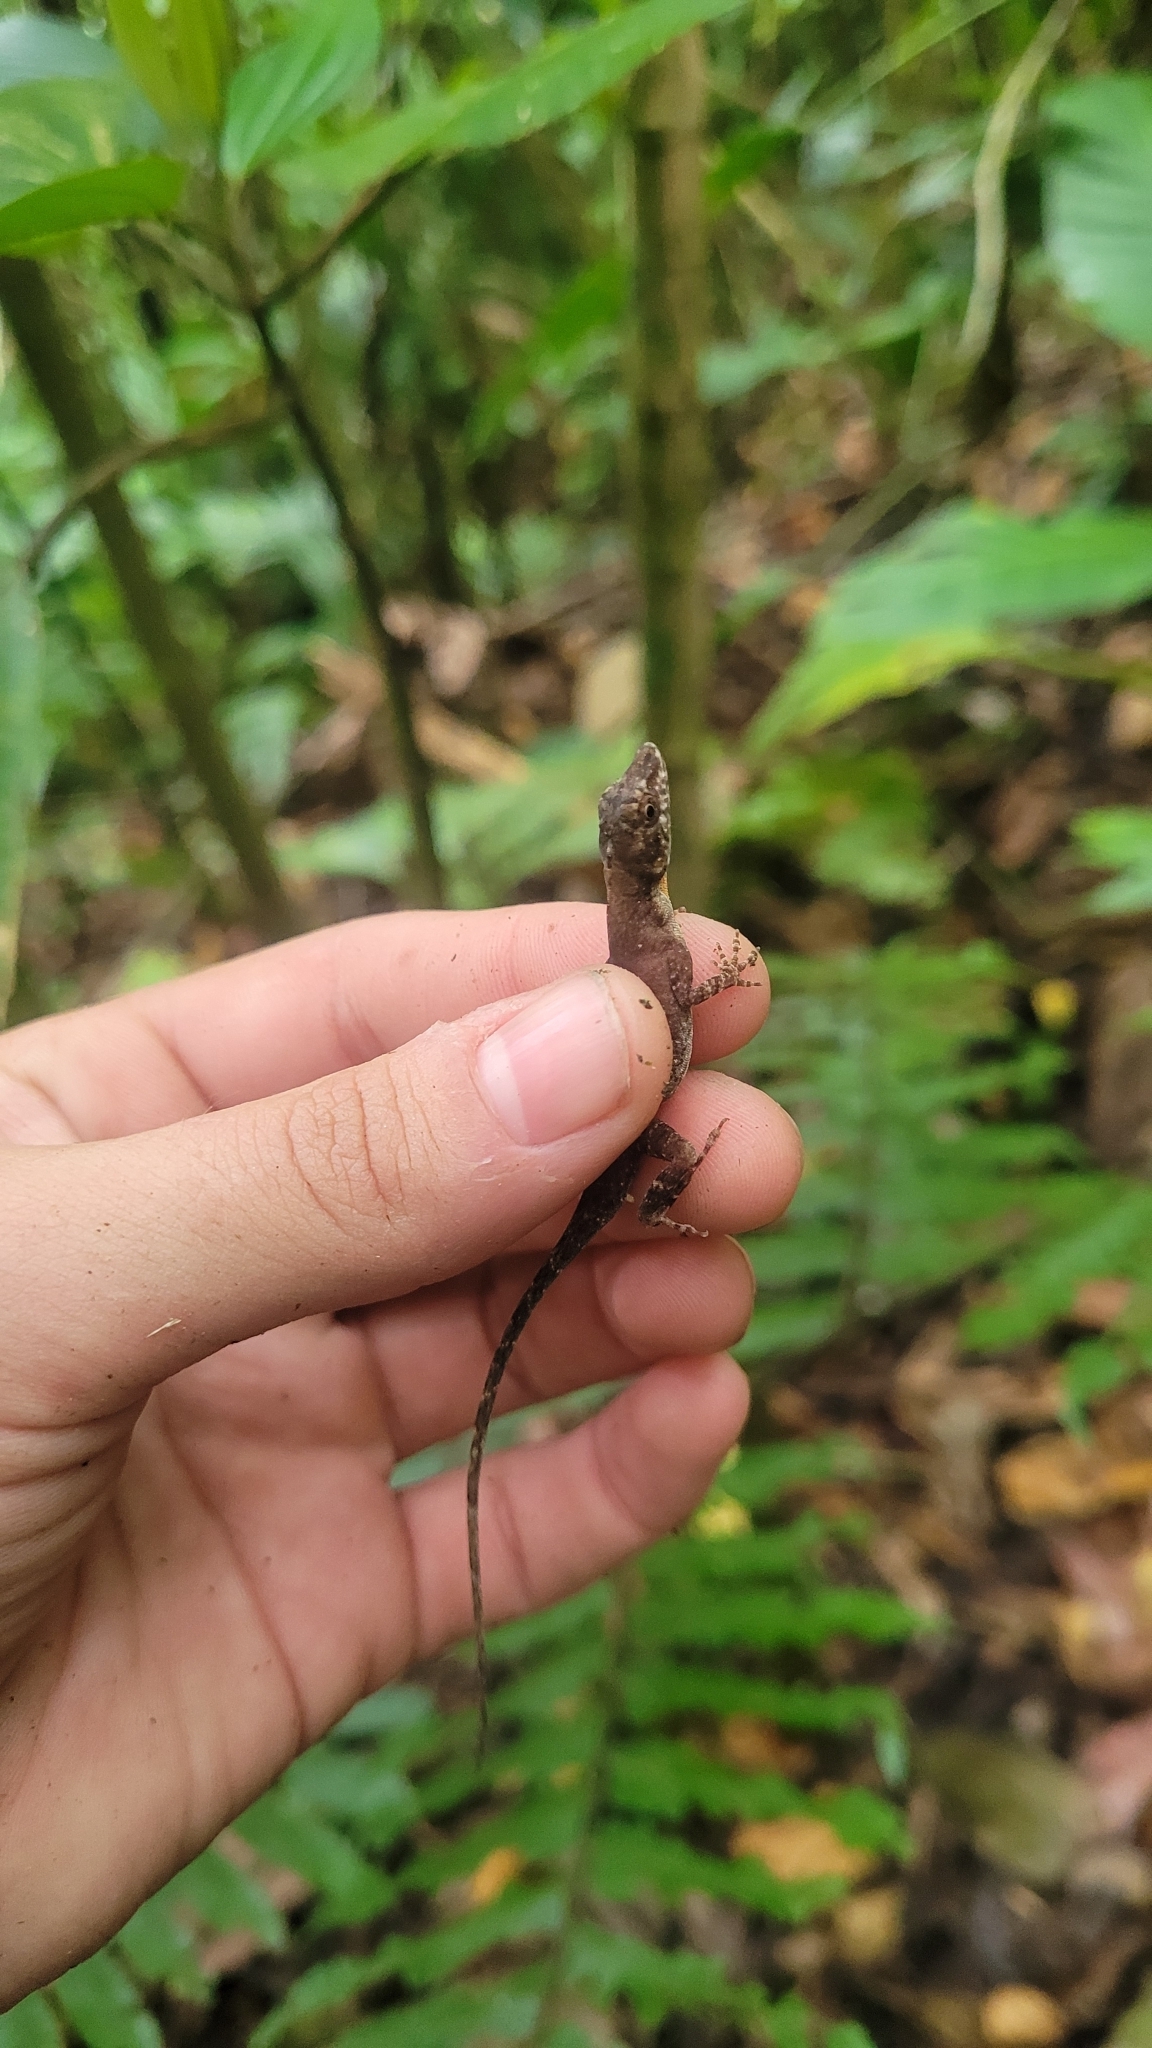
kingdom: Animalia
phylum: Chordata
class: Squamata
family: Dactyloidae
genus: Anolis
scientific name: Anolis zeus
